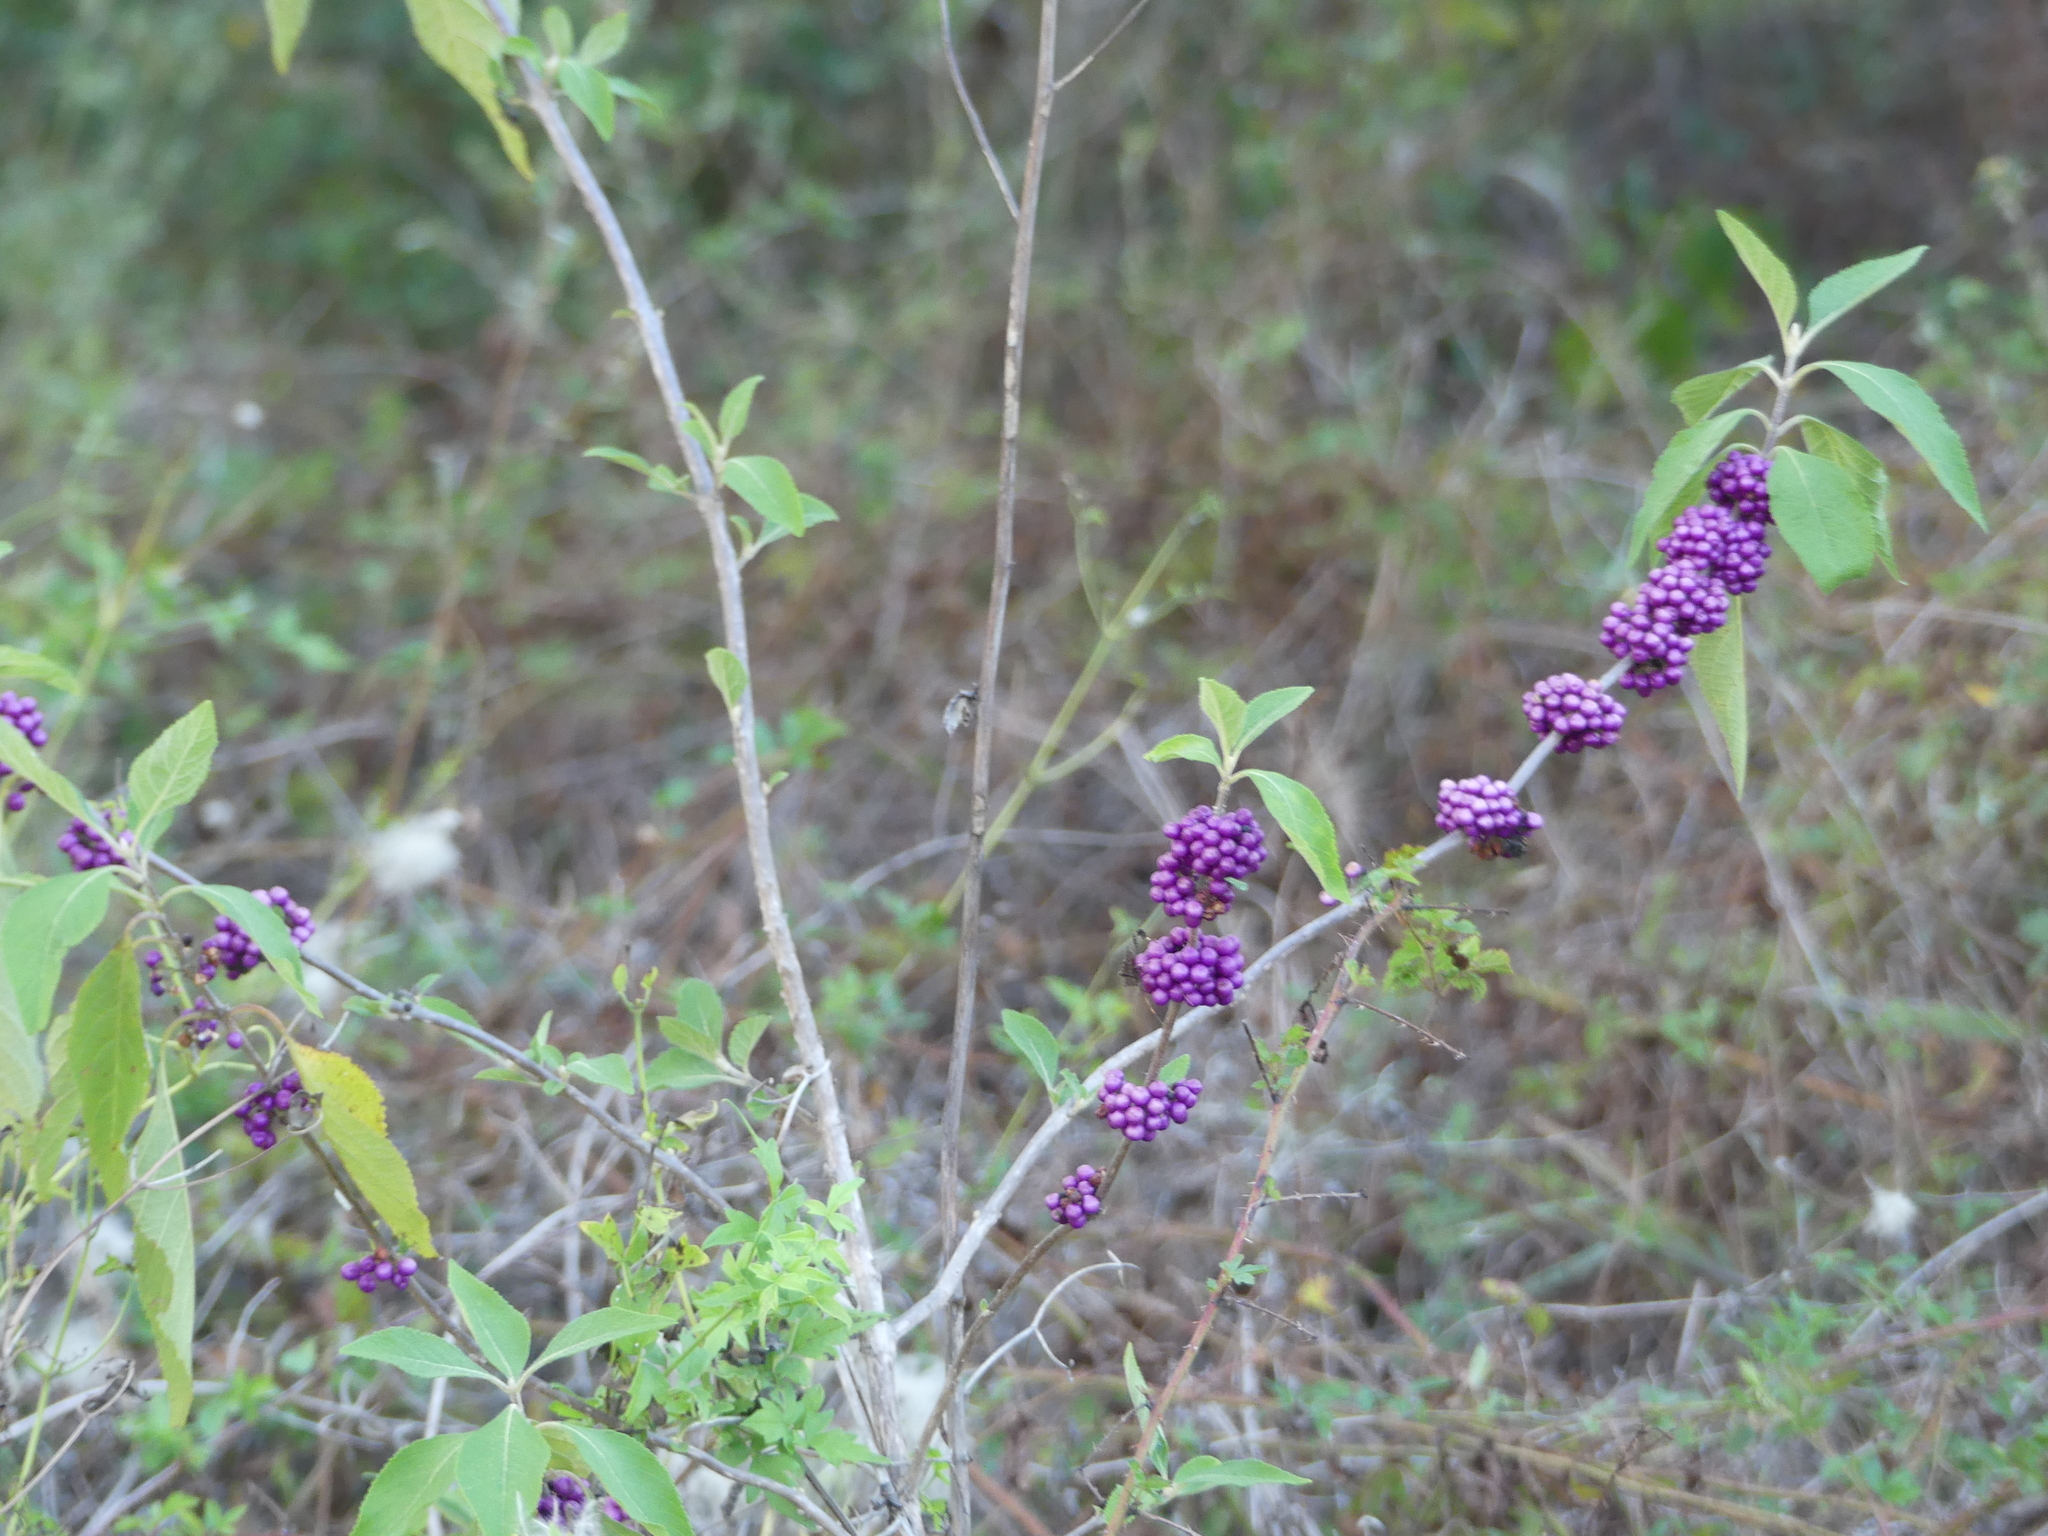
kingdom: Plantae
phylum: Tracheophyta
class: Magnoliopsida
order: Lamiales
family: Lamiaceae
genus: Callicarpa
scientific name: Callicarpa americana
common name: American beautyberry
